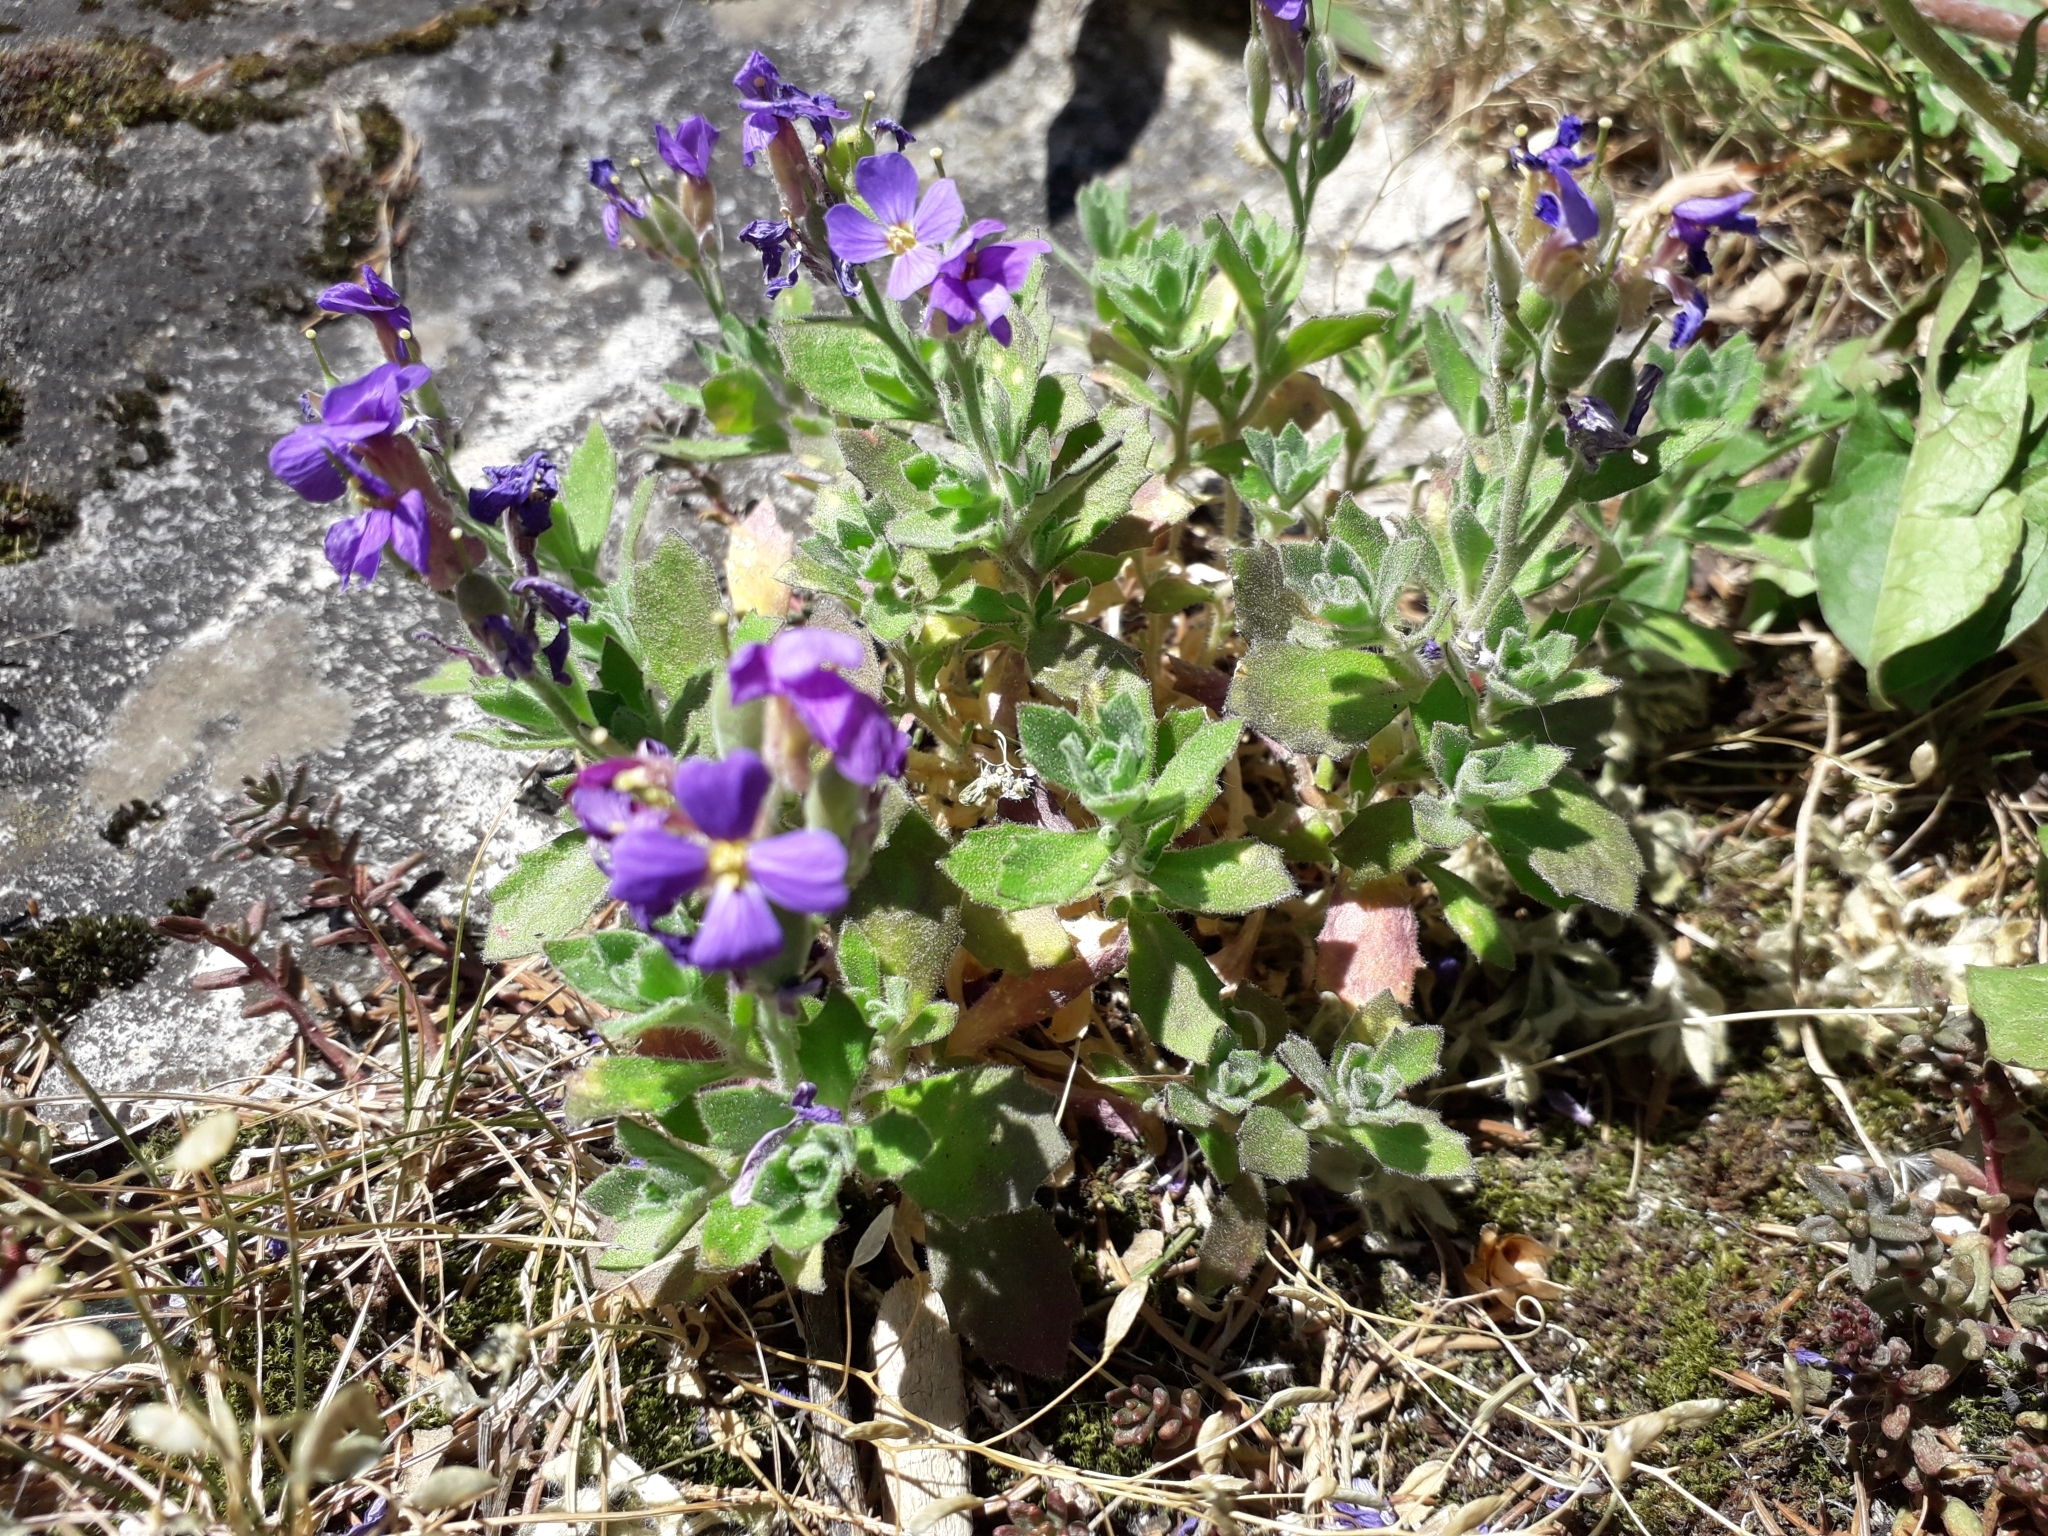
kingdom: Plantae
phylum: Tracheophyta
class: Magnoliopsida
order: Brassicales
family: Brassicaceae
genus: Aubrieta
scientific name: Aubrieta deltoidea
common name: Aubretia
